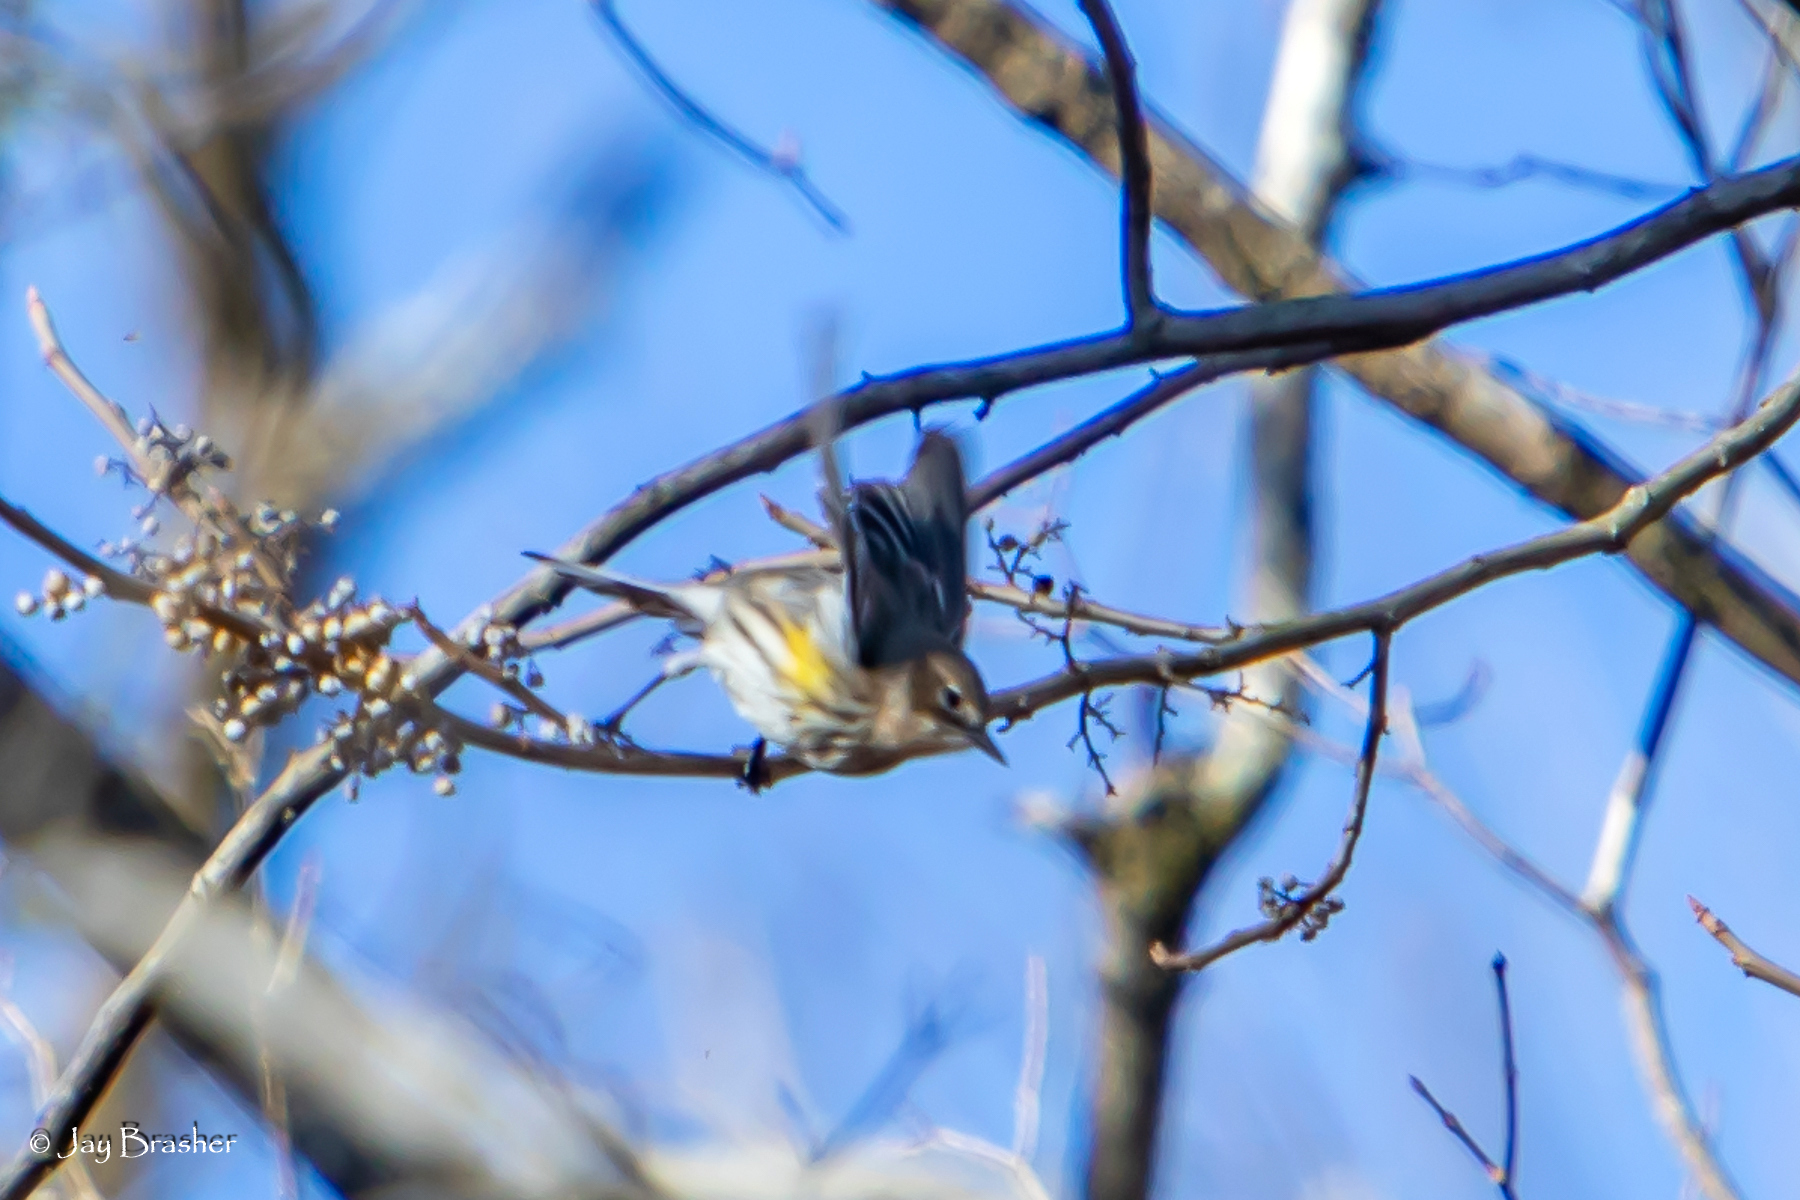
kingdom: Animalia
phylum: Chordata
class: Aves
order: Passeriformes
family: Parulidae
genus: Setophaga
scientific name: Setophaga coronata
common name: Myrtle warbler
